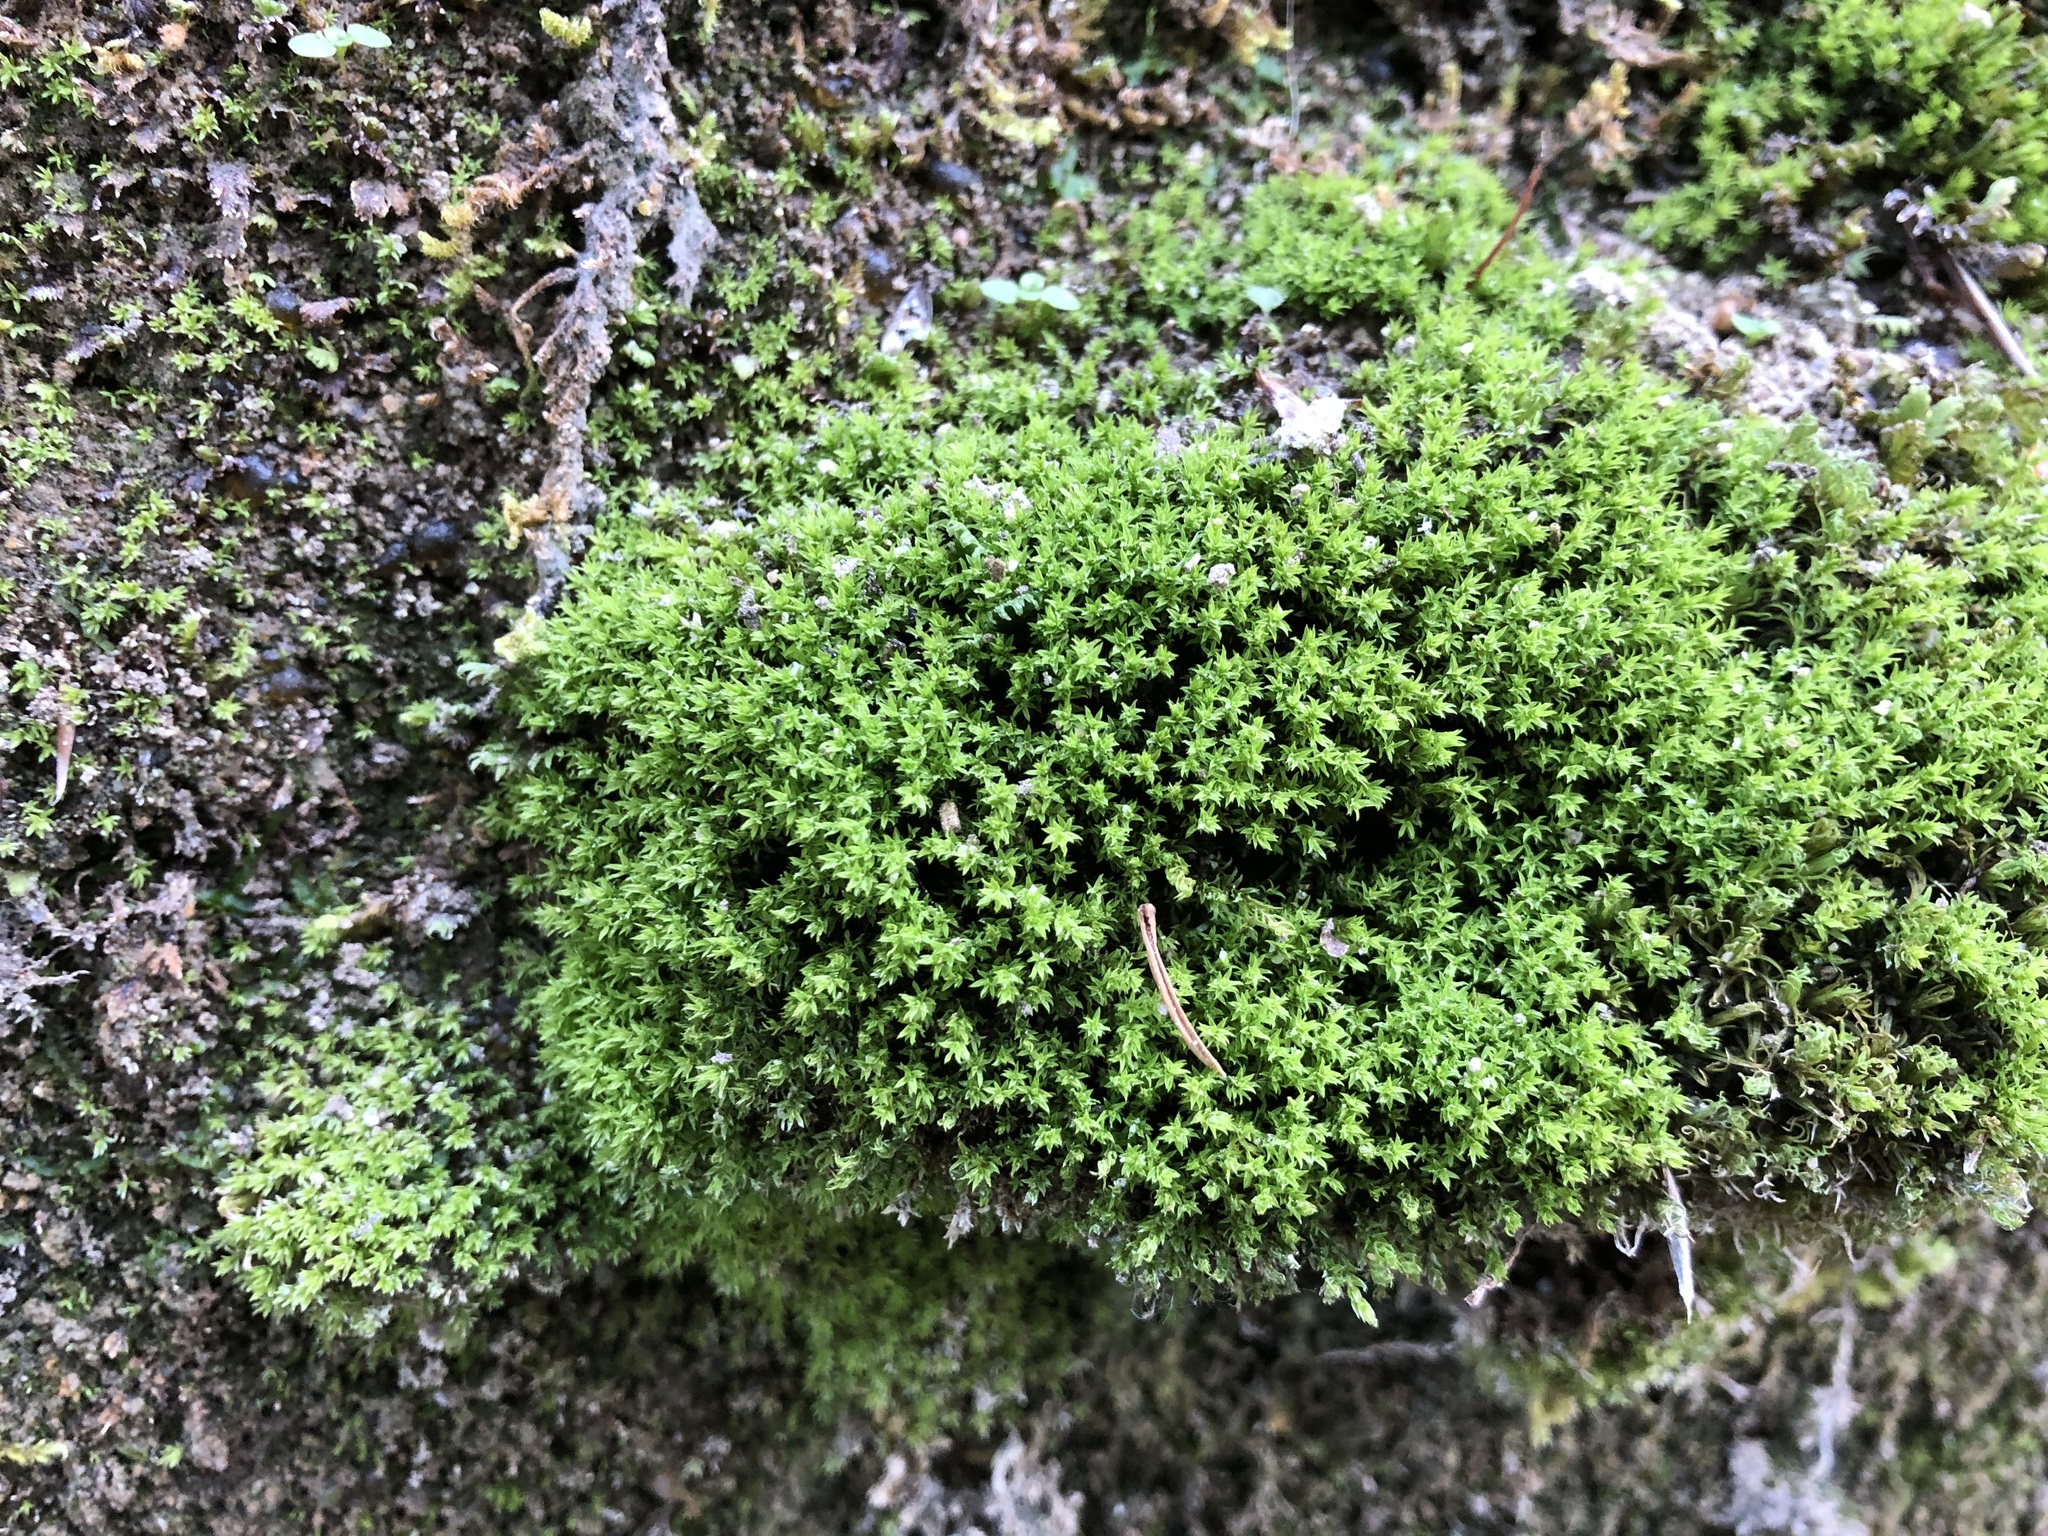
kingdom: Plantae
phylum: Bryophyta
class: Bryopsida
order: Pottiales
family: Pottiaceae
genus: Hydrogonium
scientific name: Hydrogonium croceum
